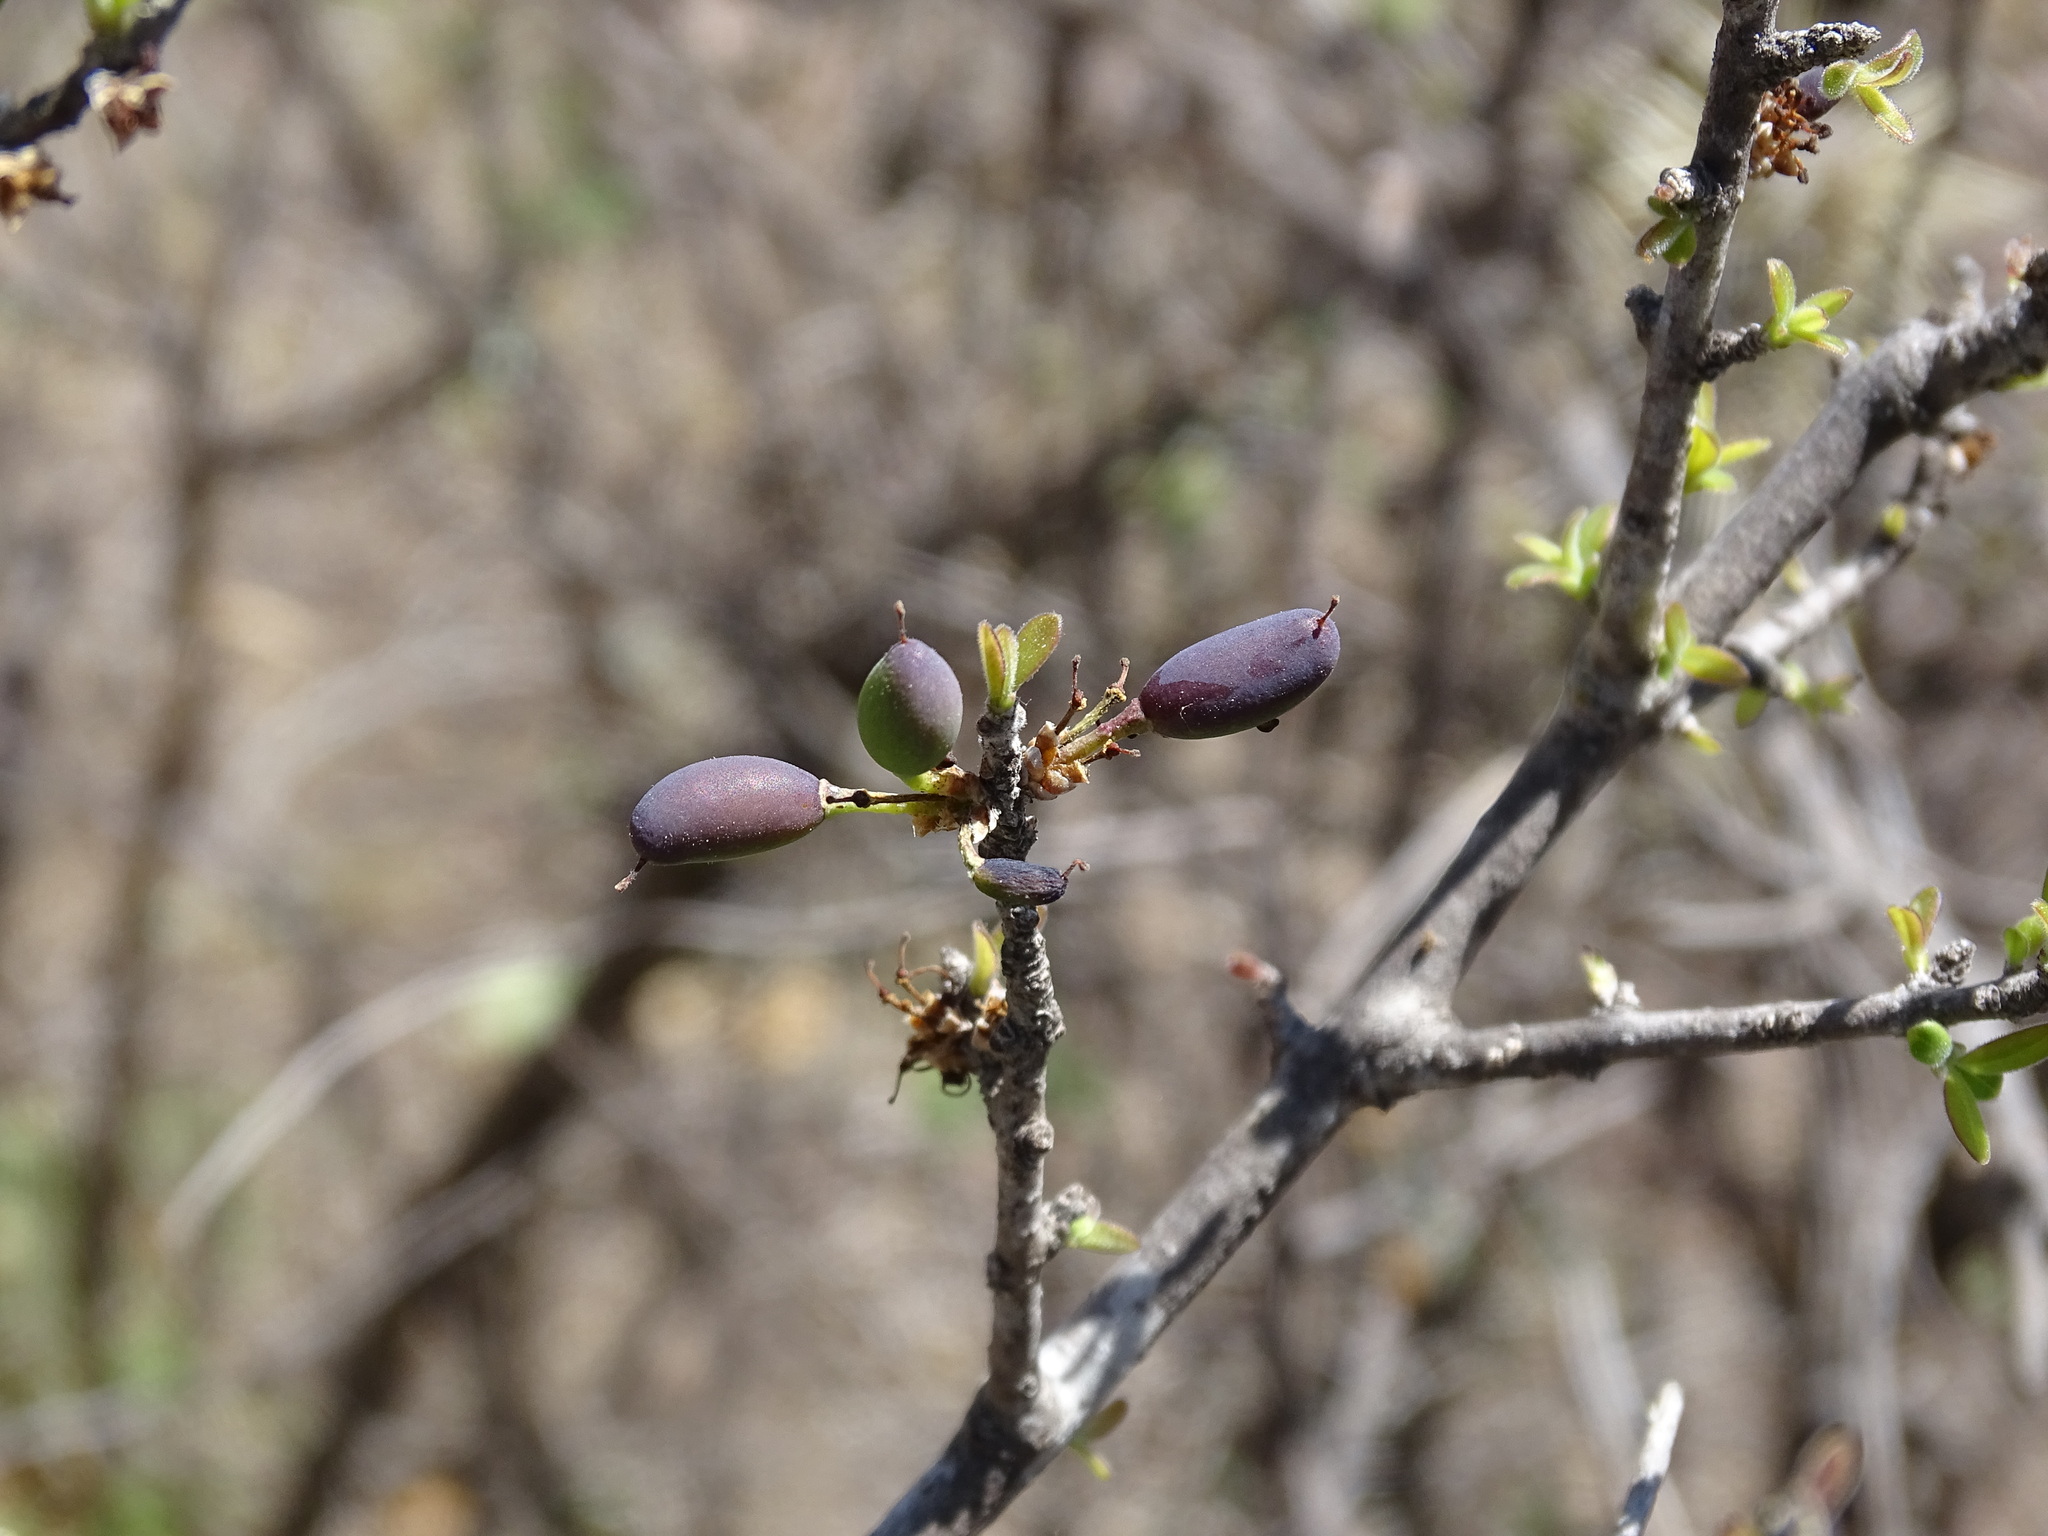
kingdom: Plantae
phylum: Tracheophyta
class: Magnoliopsida
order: Lamiales
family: Oleaceae
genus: Forestiera
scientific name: Forestiera phillyreoides
